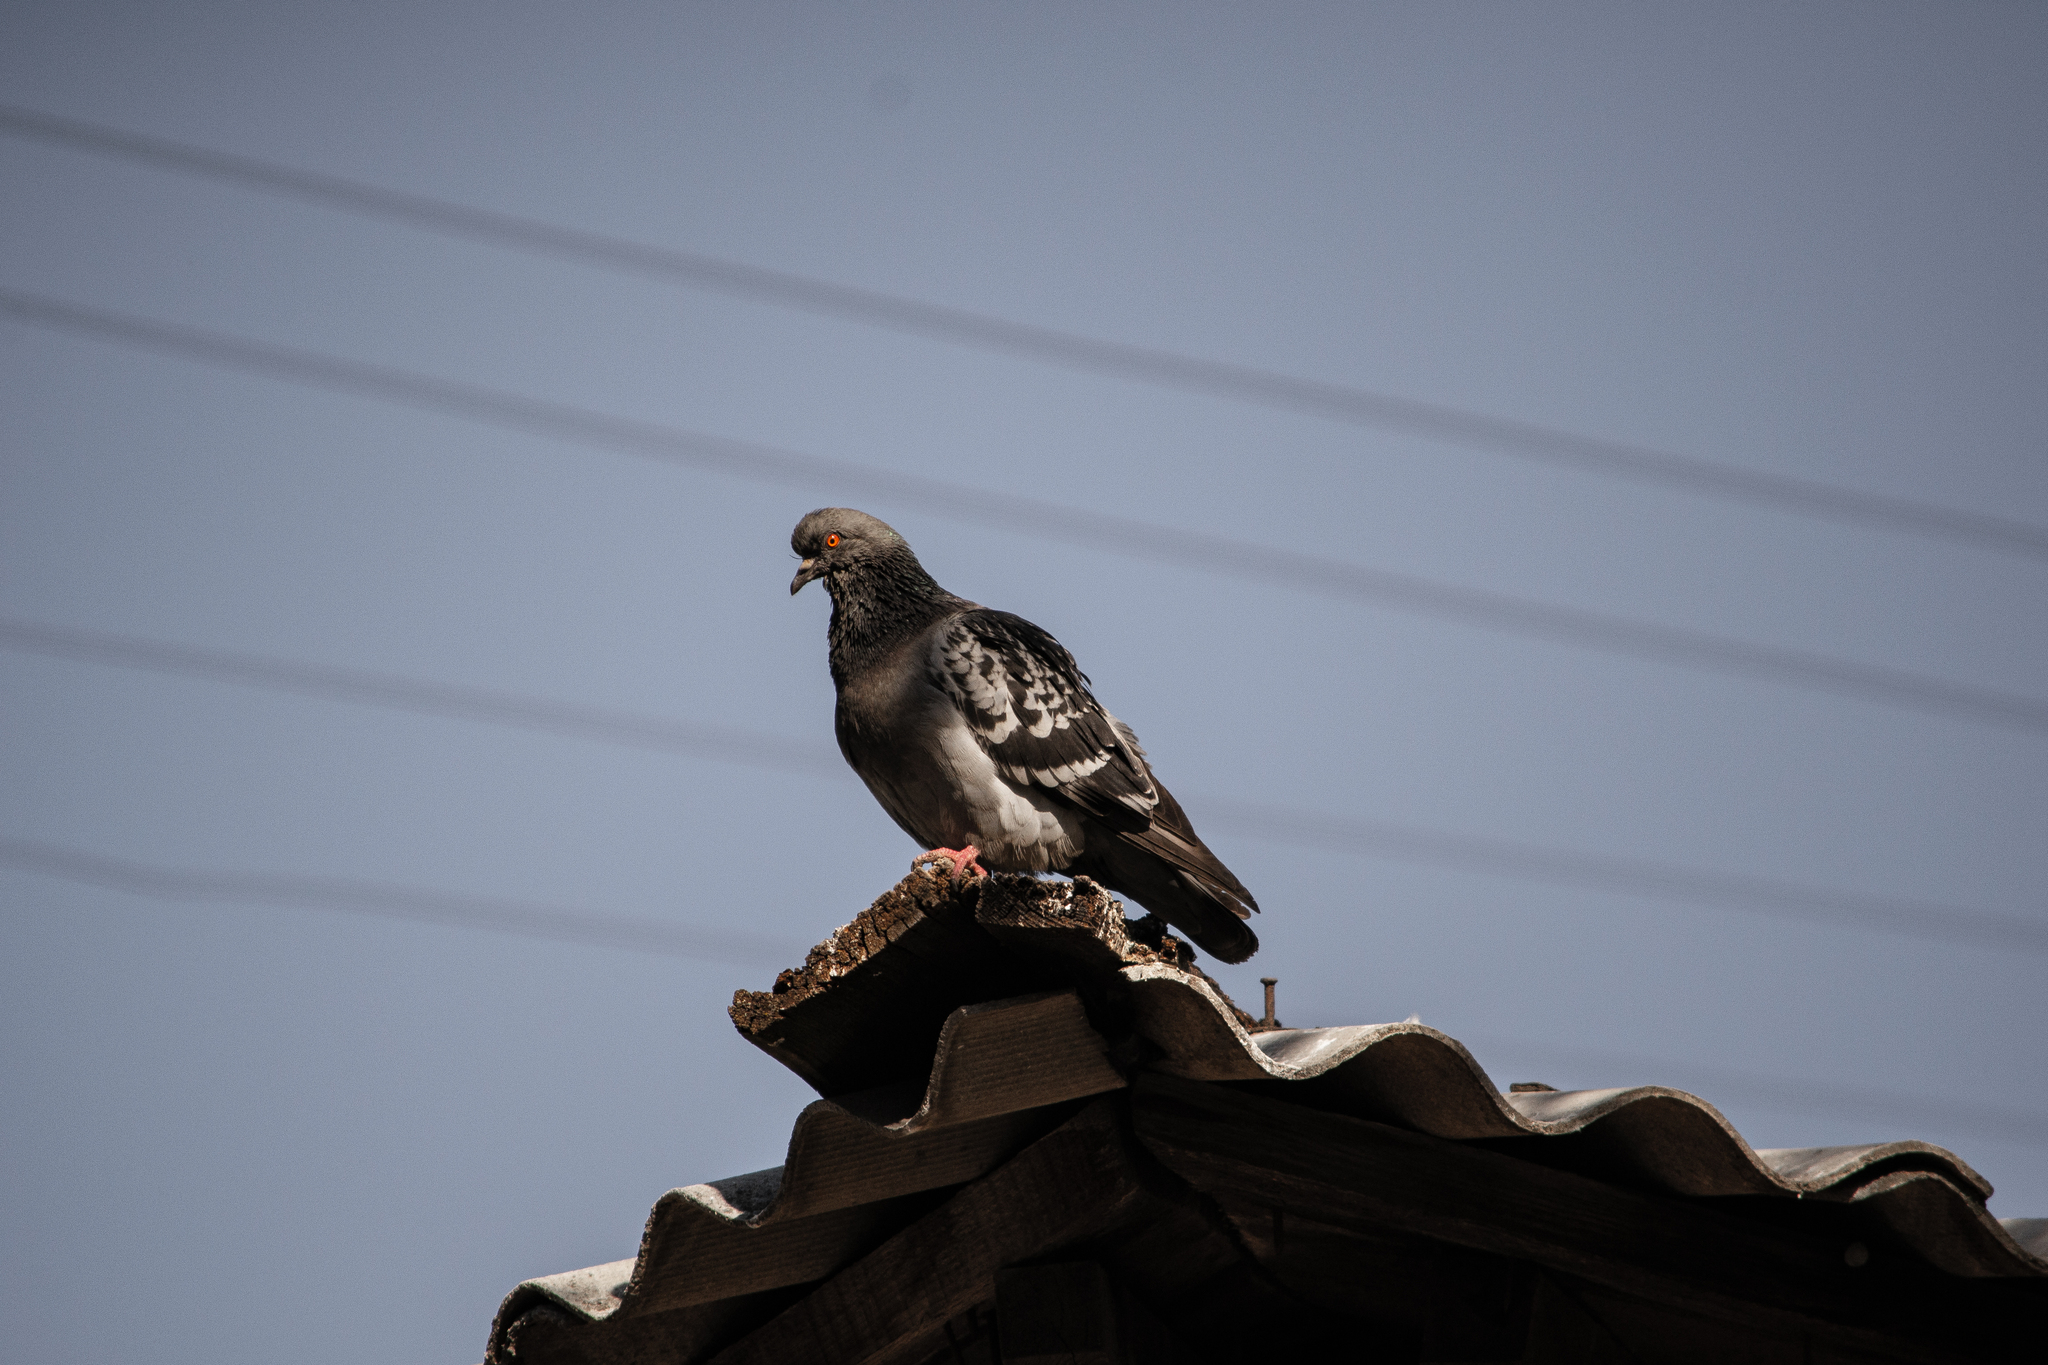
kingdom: Animalia
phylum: Chordata
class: Aves
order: Columbiformes
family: Columbidae
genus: Columba
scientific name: Columba livia
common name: Rock pigeon
